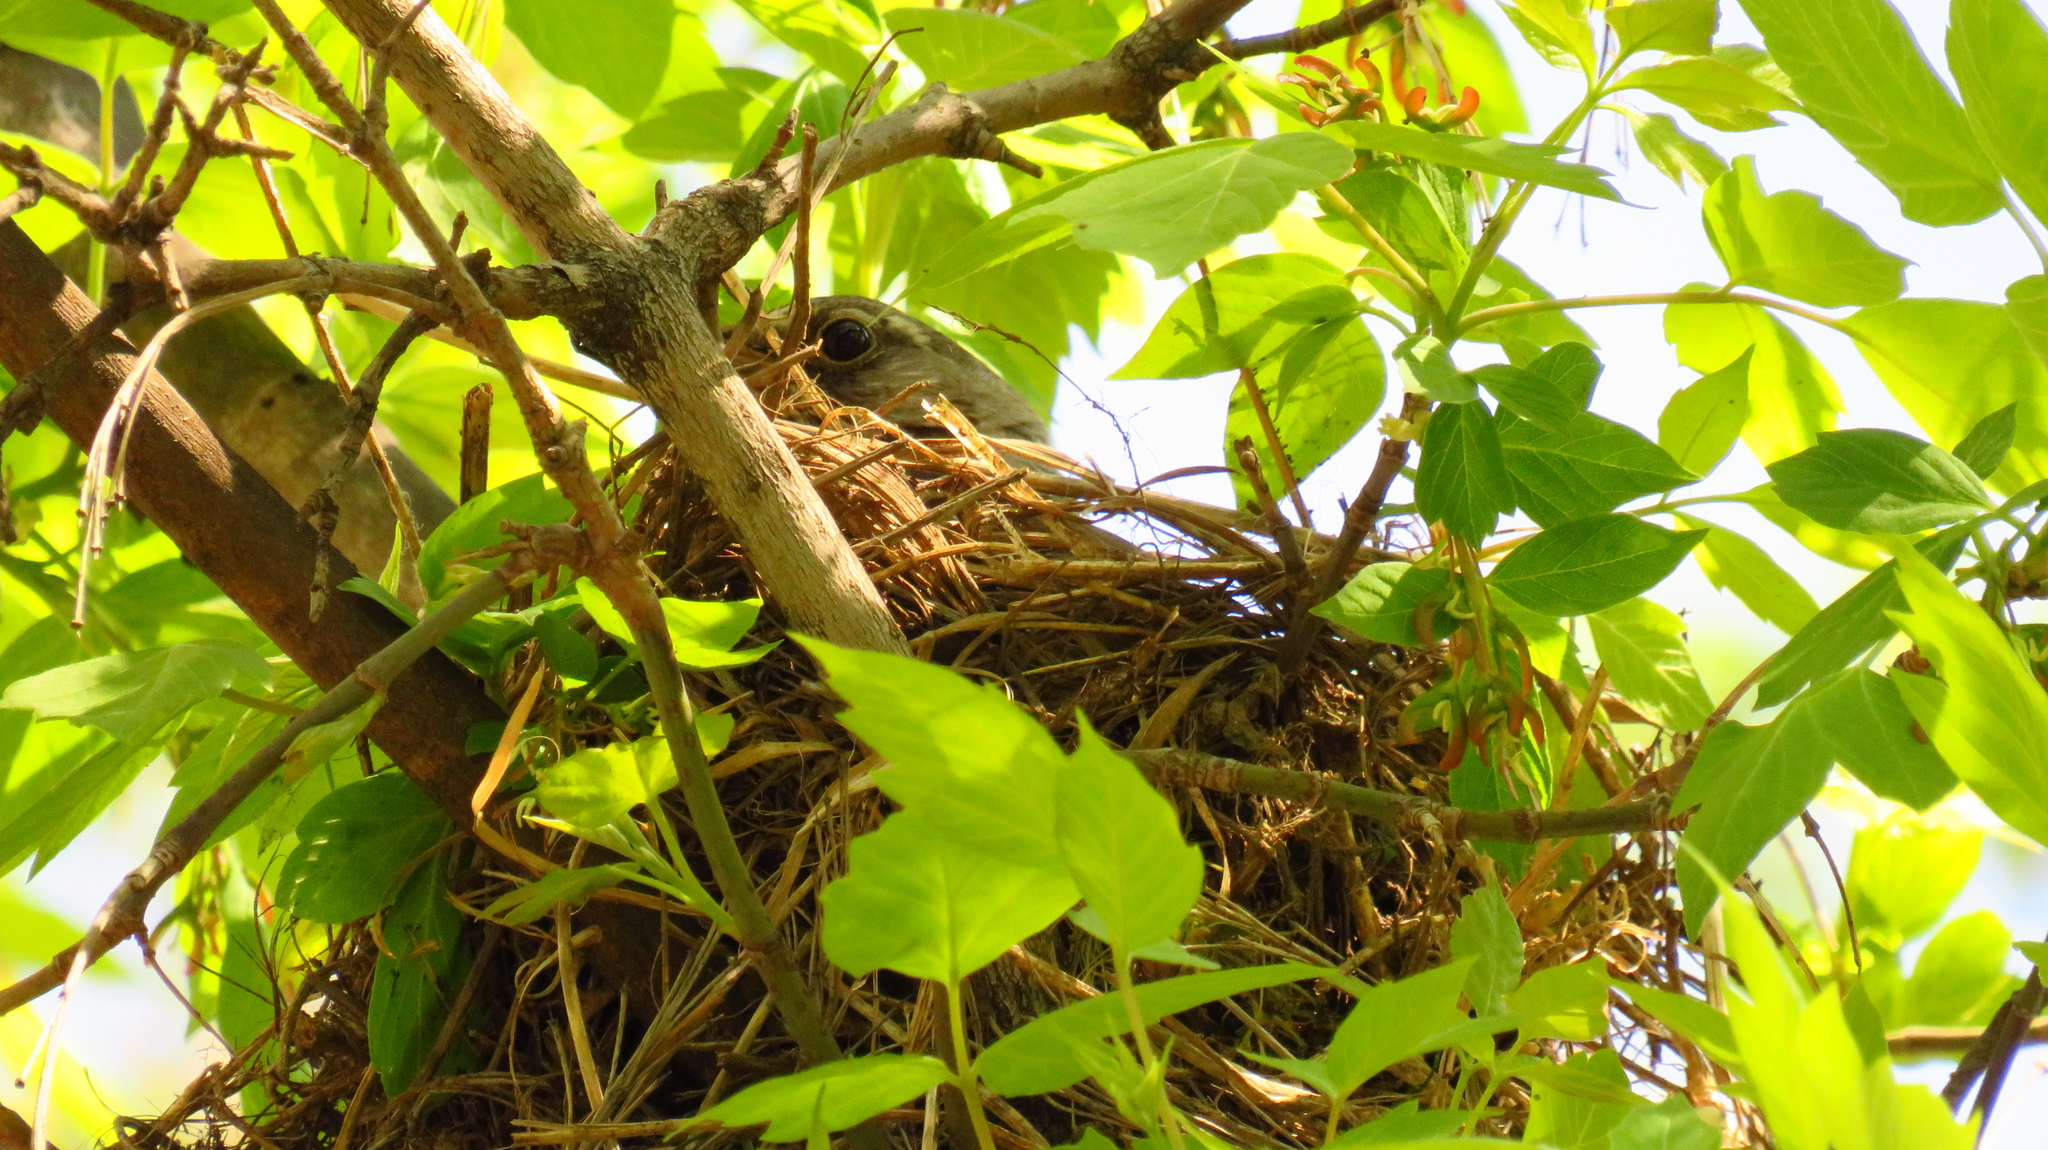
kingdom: Animalia
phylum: Chordata
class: Aves
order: Passeriformes
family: Turdidae
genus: Turdus
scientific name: Turdus pilaris
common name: Fieldfare
